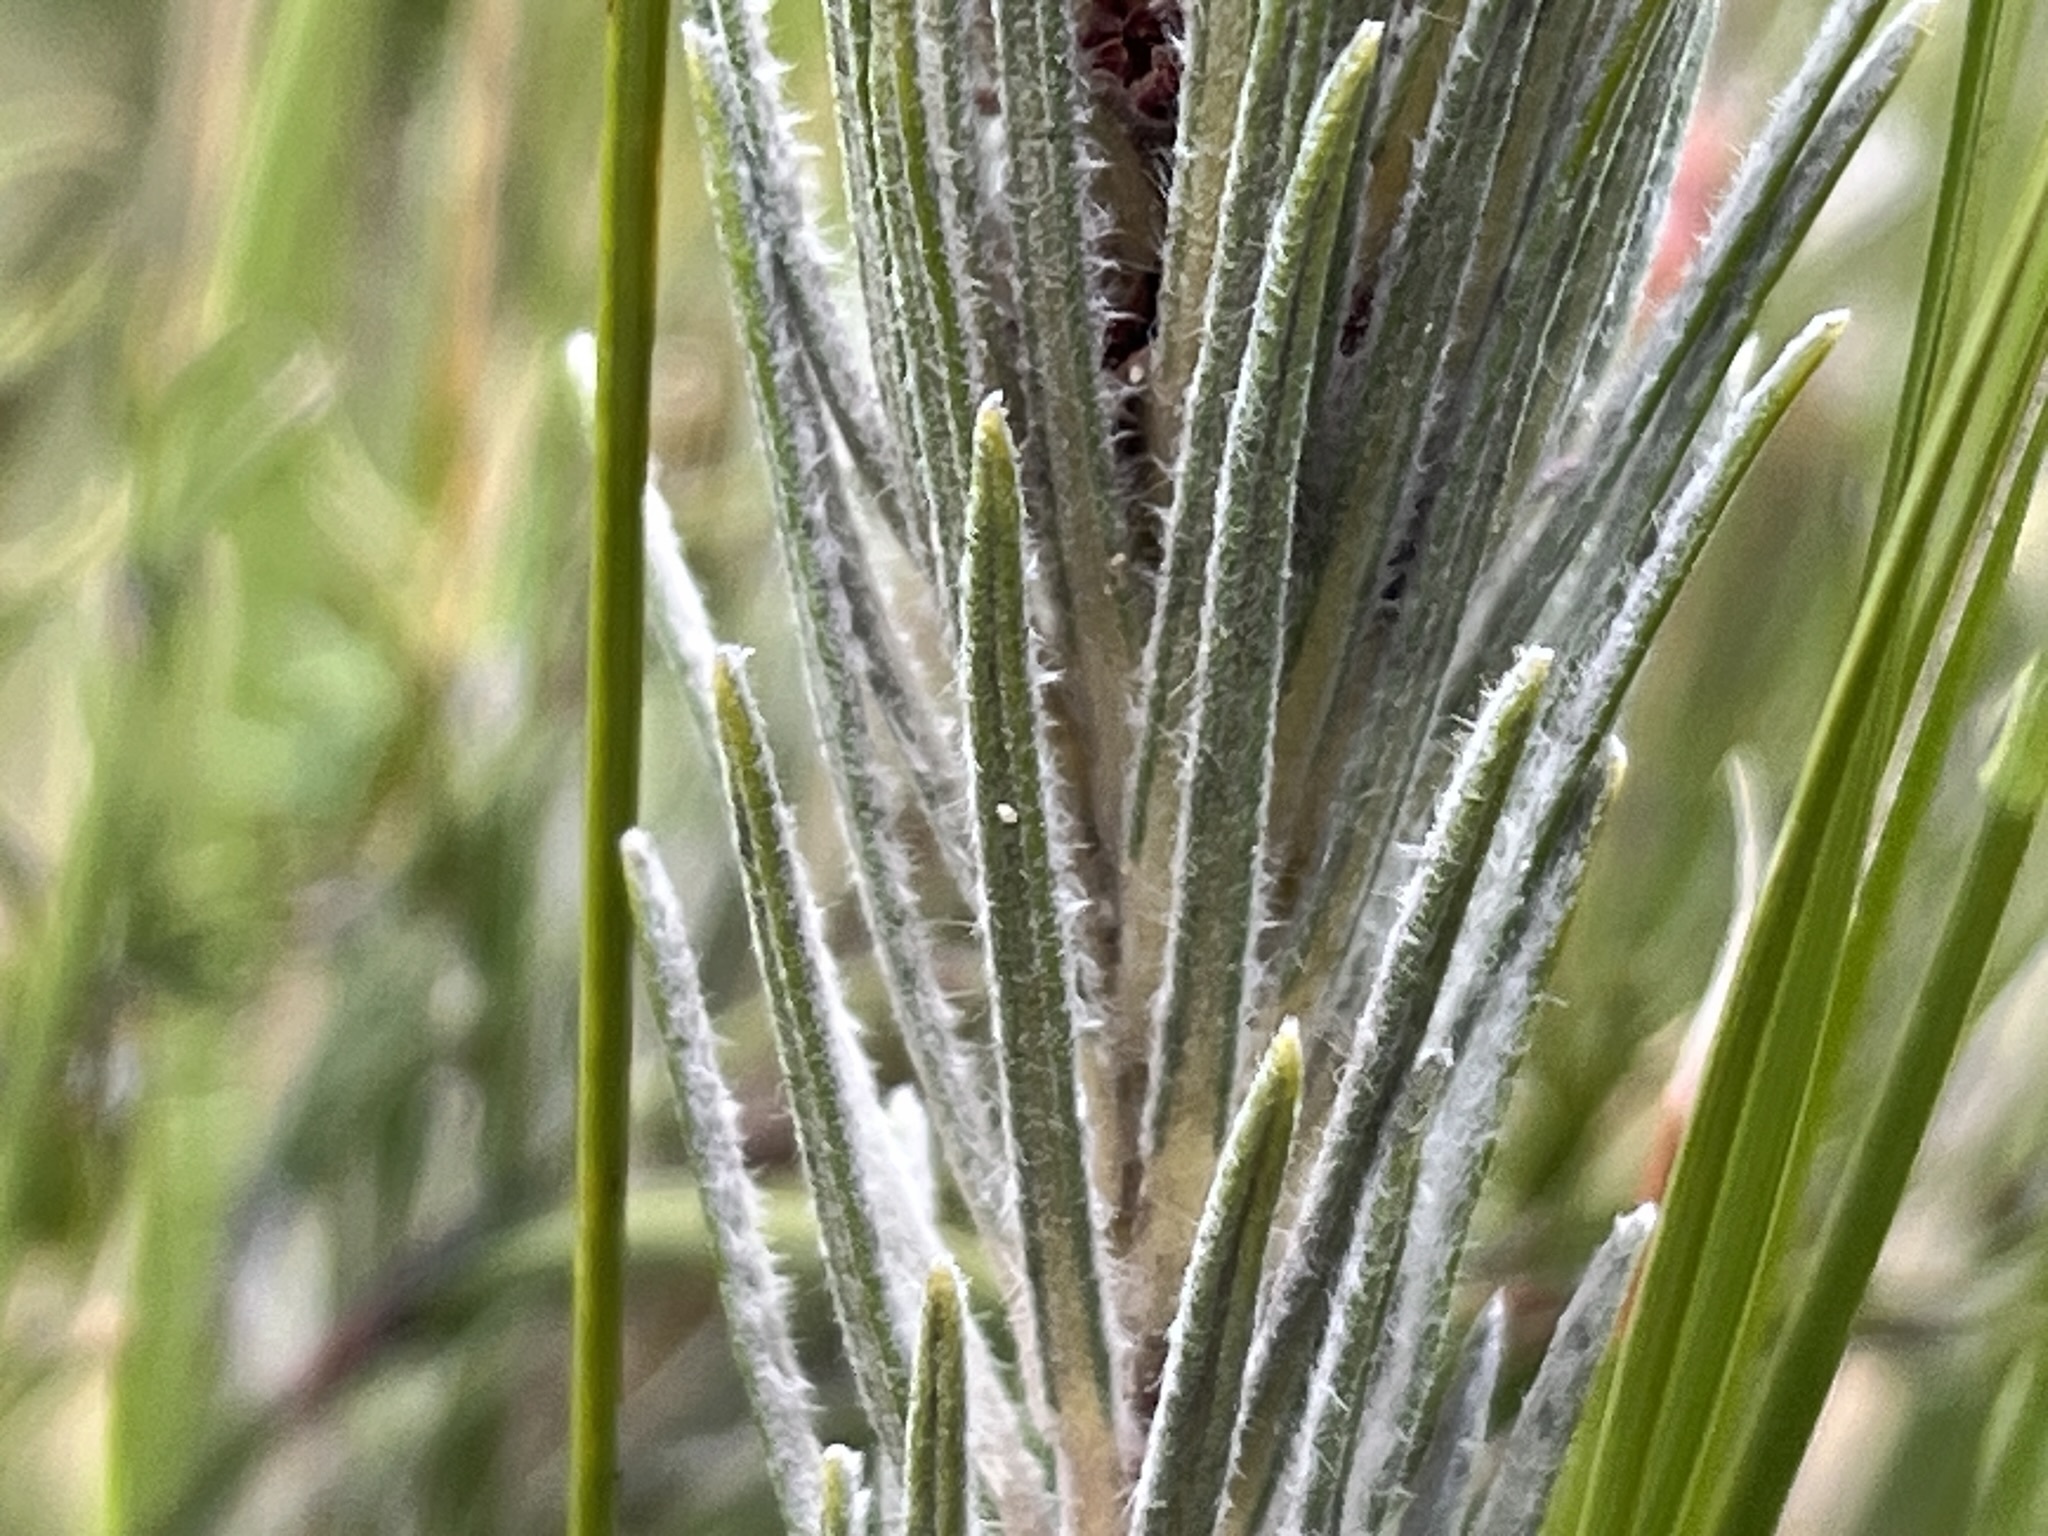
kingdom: Plantae
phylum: Tracheophyta
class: Magnoliopsida
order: Rosales
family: Rhamnaceae
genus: Phylica
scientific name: Phylica velutina
